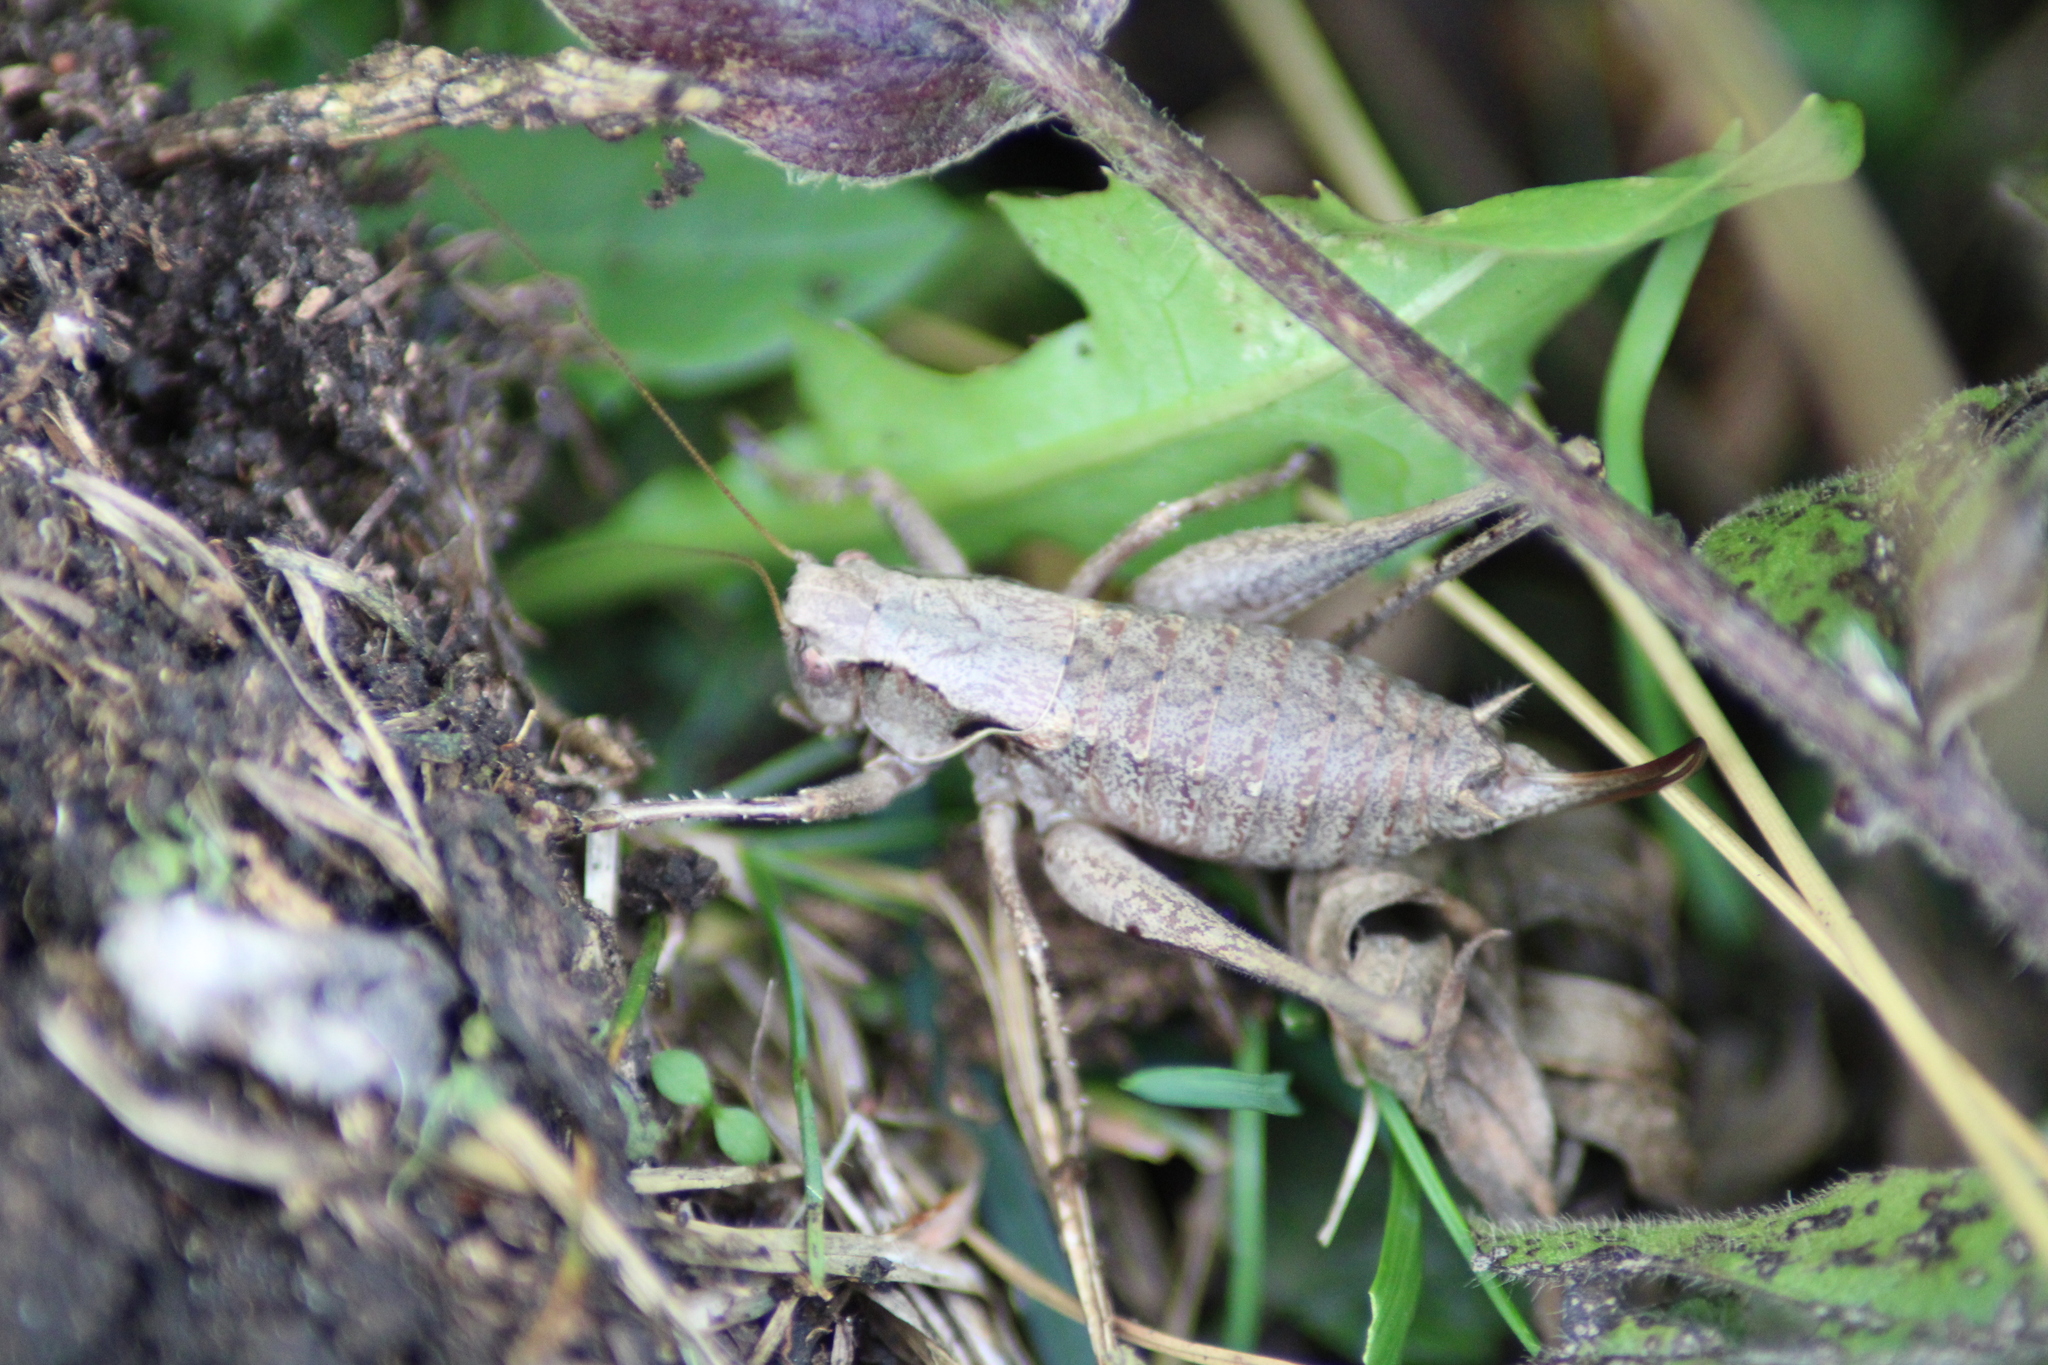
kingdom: Animalia
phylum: Arthropoda
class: Insecta
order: Orthoptera
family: Tettigoniidae
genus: Pholidoptera
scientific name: Pholidoptera griseoaptera
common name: Dark bush-cricket
